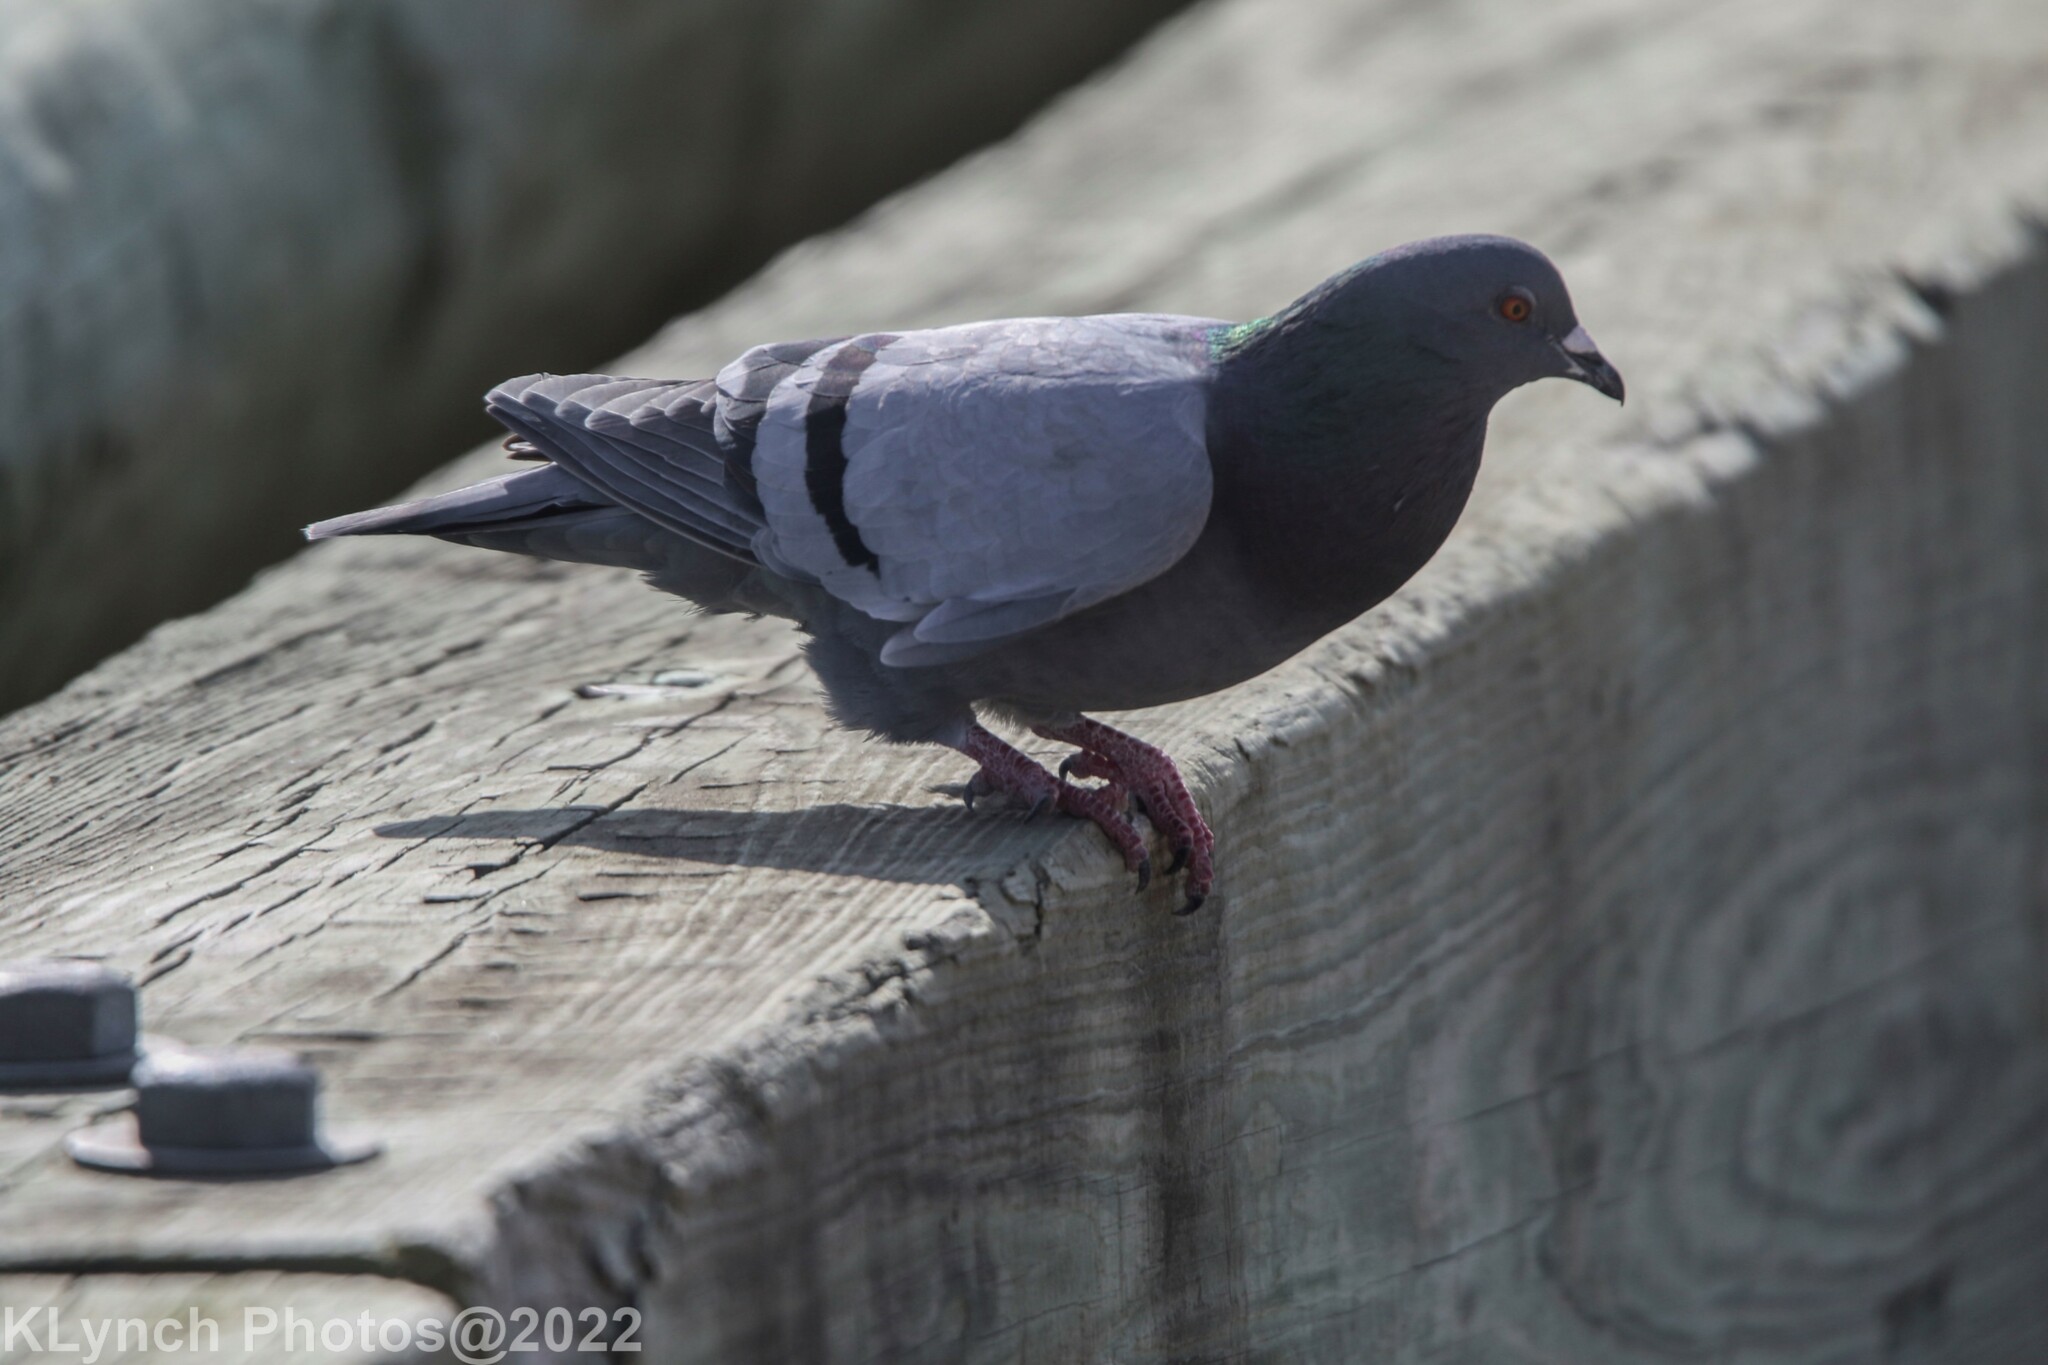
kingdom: Animalia
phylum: Chordata
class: Aves
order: Columbiformes
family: Columbidae
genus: Columba
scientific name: Columba livia
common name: Rock pigeon
